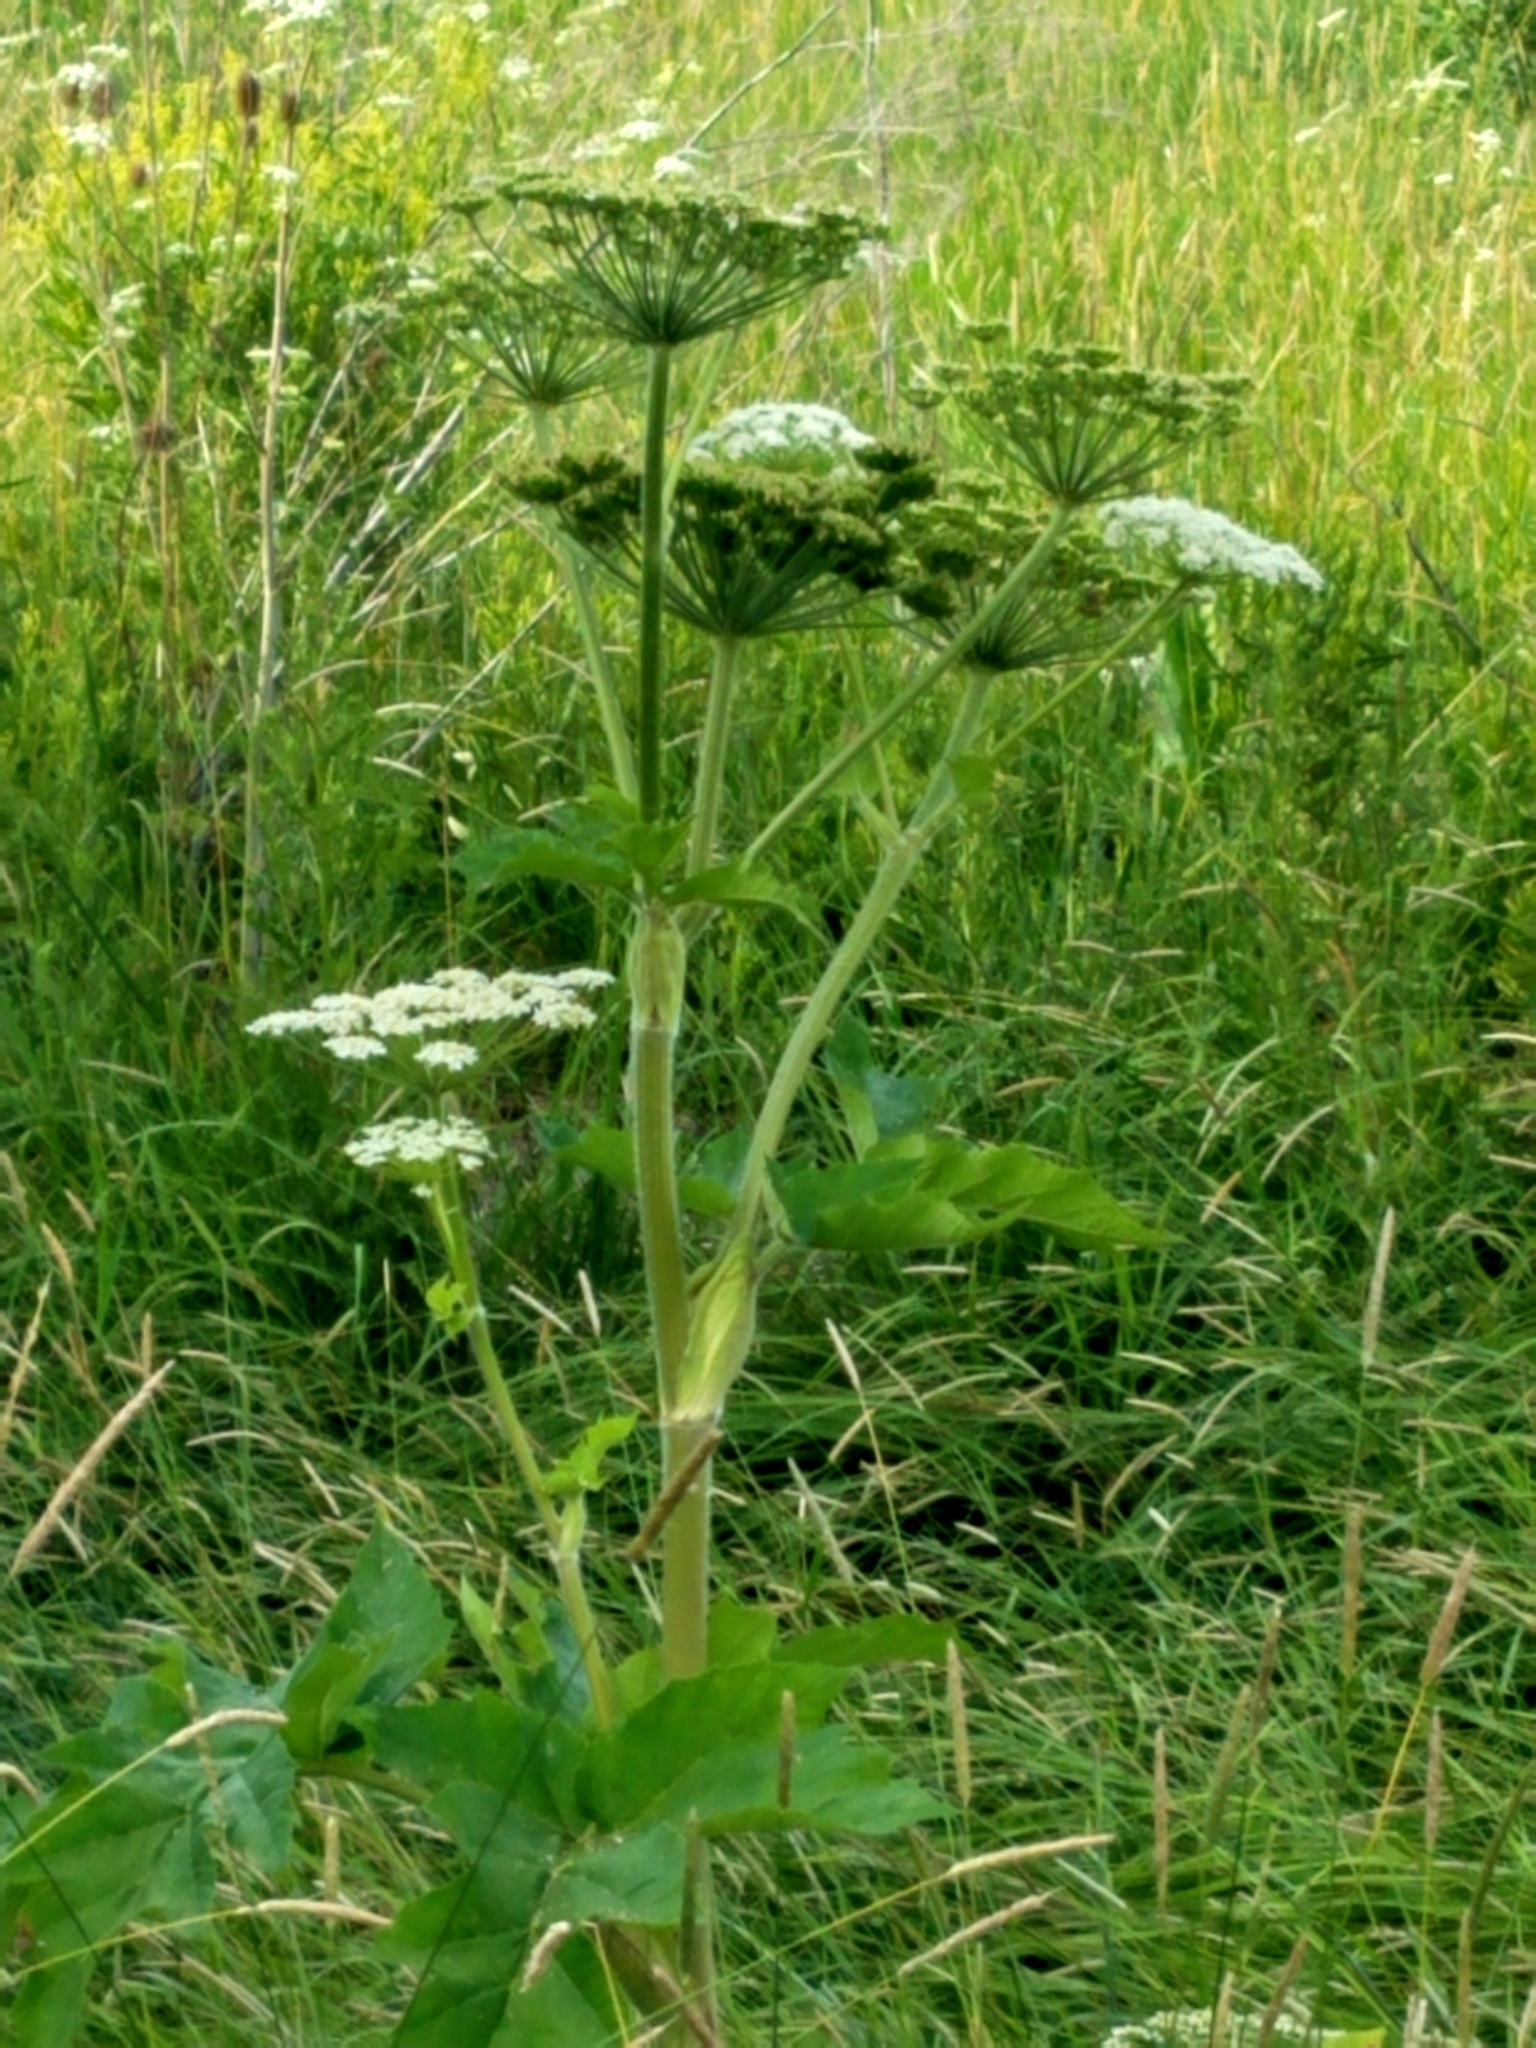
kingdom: Plantae
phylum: Tracheophyta
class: Magnoliopsida
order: Apiales
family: Apiaceae
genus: Heracleum
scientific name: Heracleum maximum
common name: American cow parsnip
